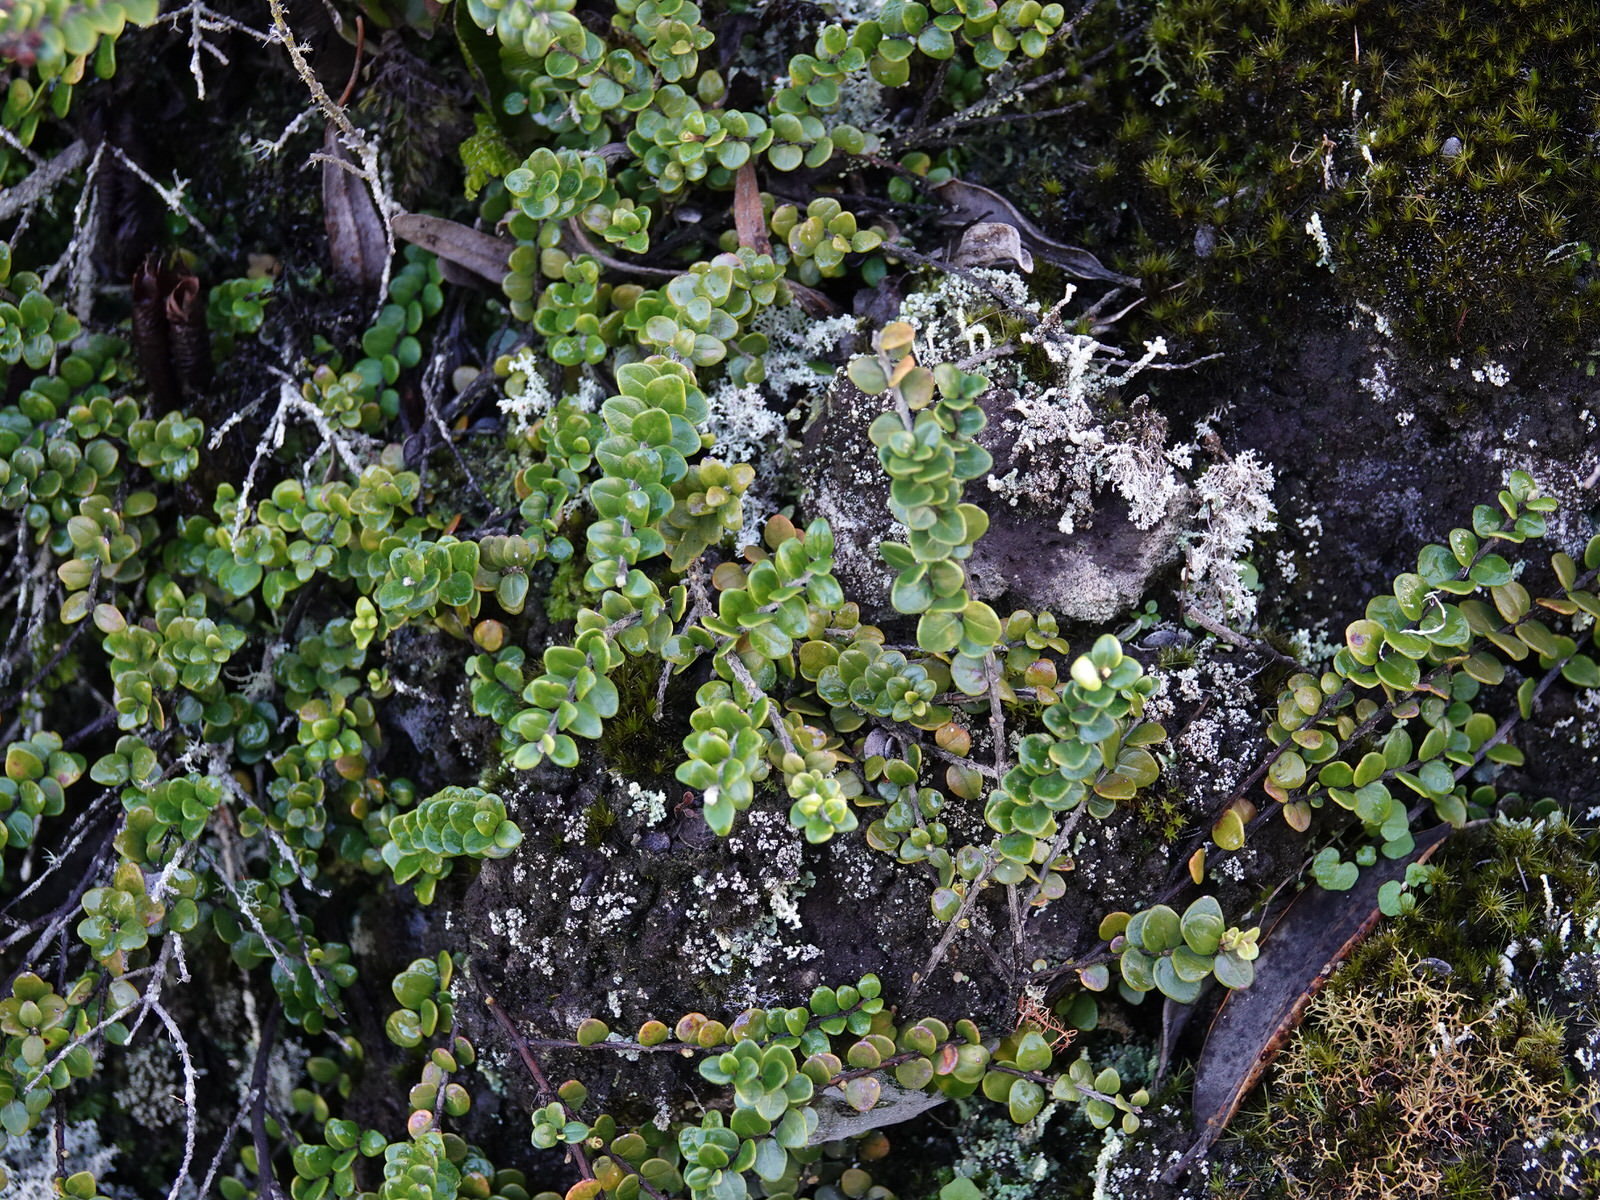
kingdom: Plantae
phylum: Tracheophyta
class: Magnoliopsida
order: Myrtales
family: Myrtaceae
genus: Metrosideros
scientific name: Metrosideros perforata
